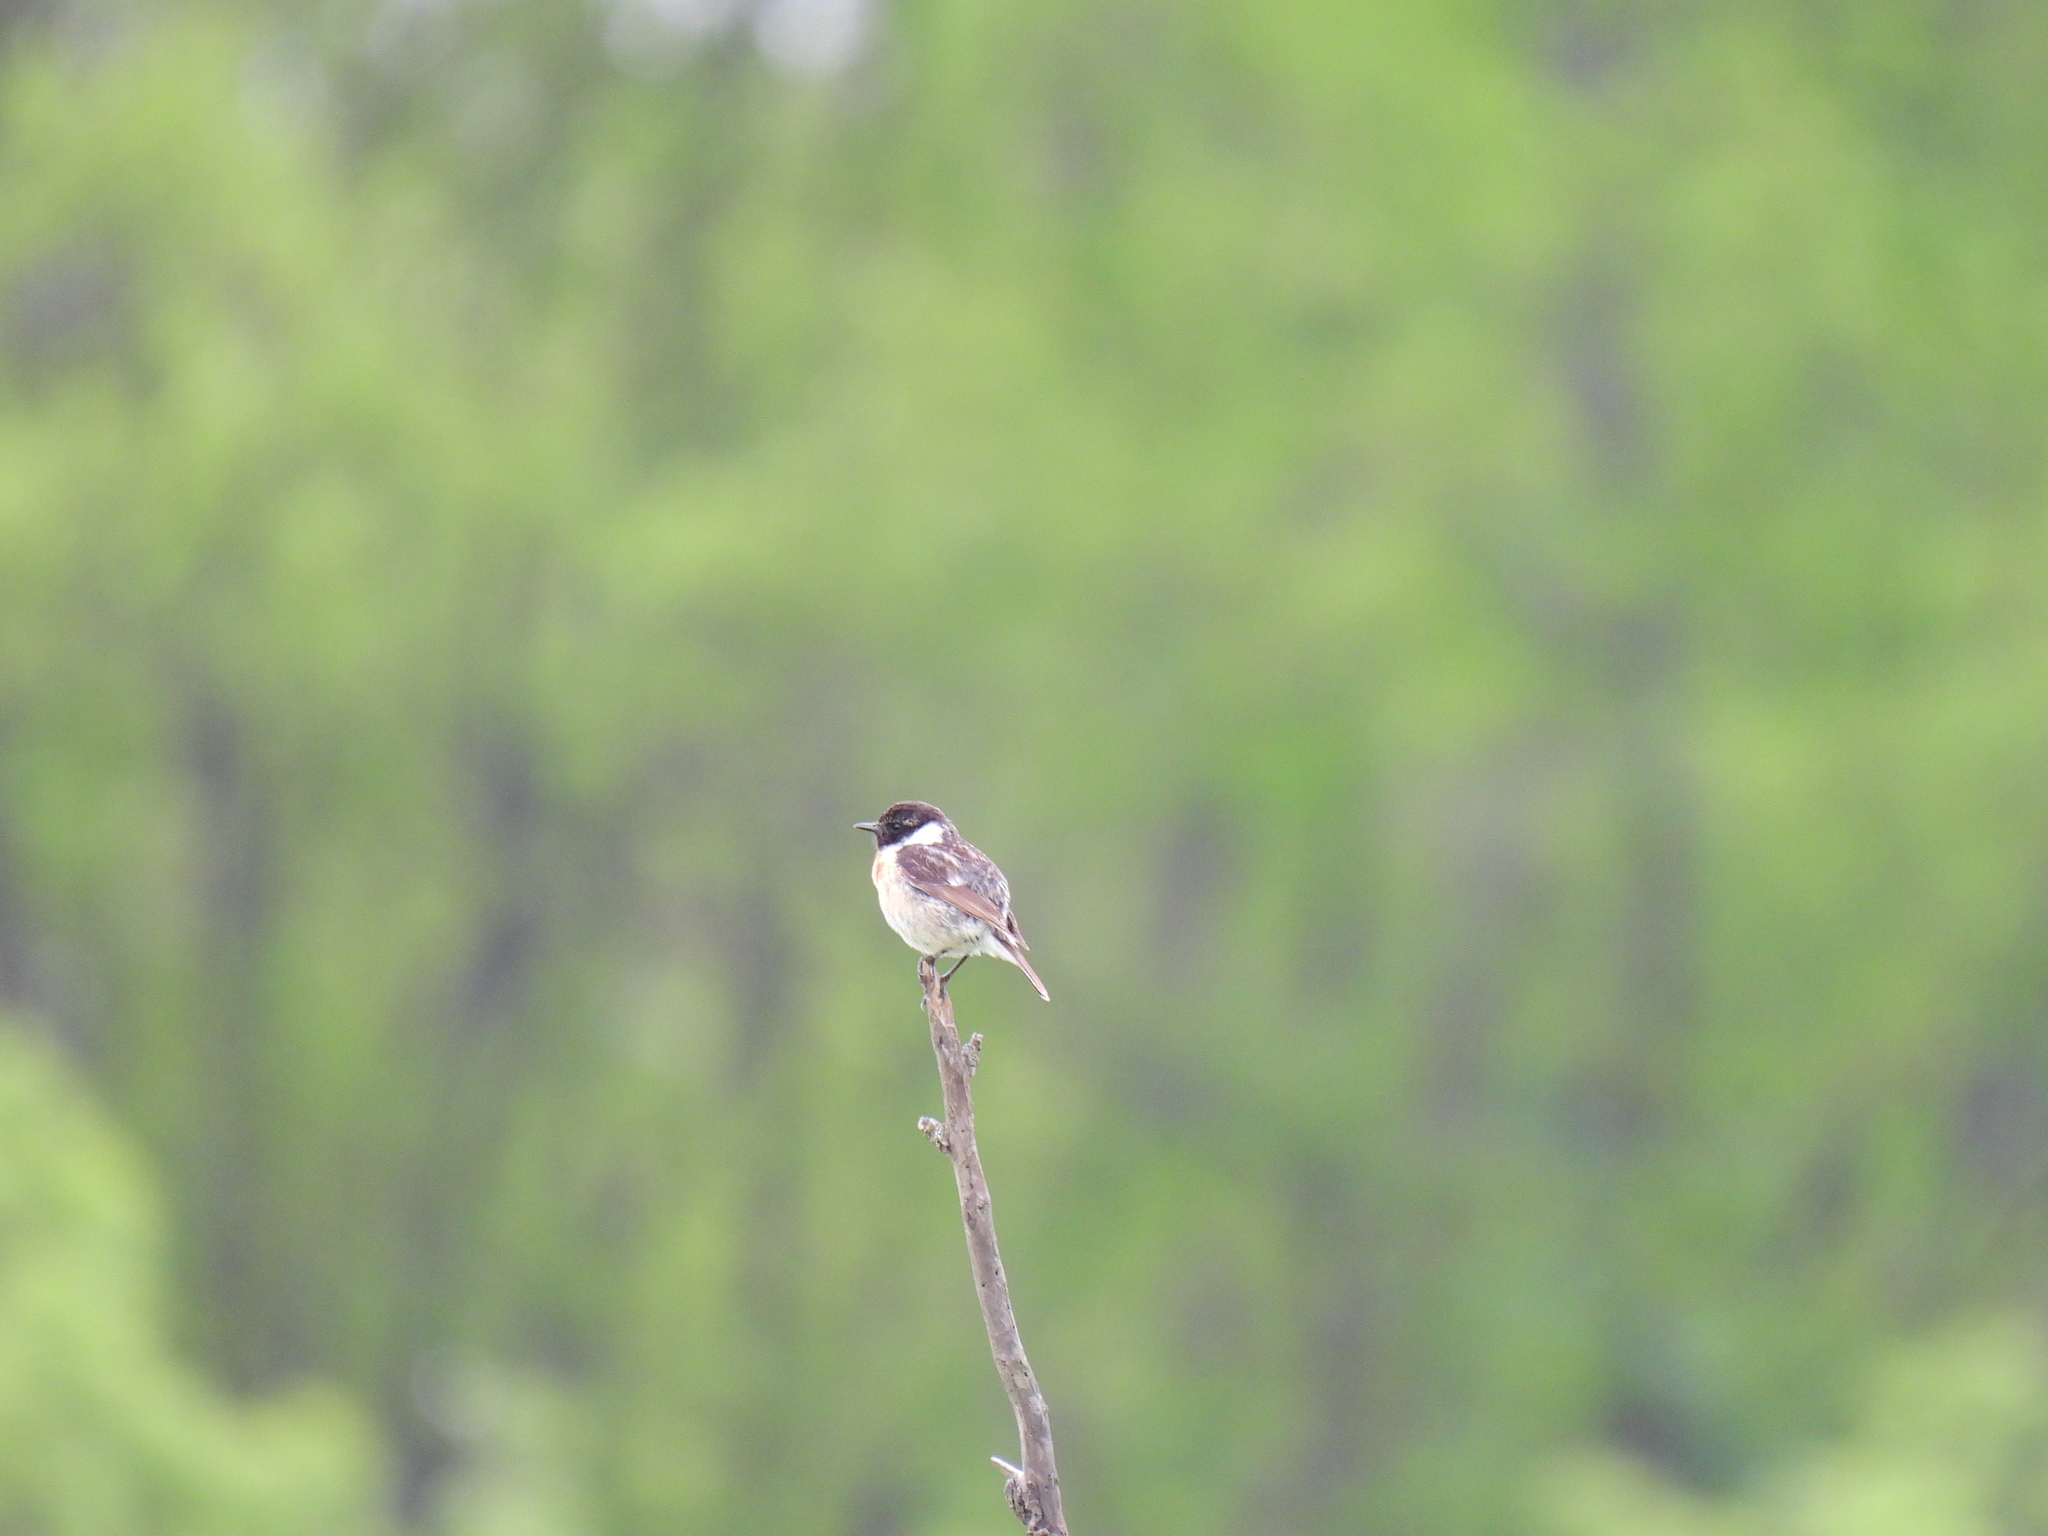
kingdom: Animalia
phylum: Chordata
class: Aves
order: Passeriformes
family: Muscicapidae
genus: Saxicola
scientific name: Saxicola rubicola
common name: European stonechat
